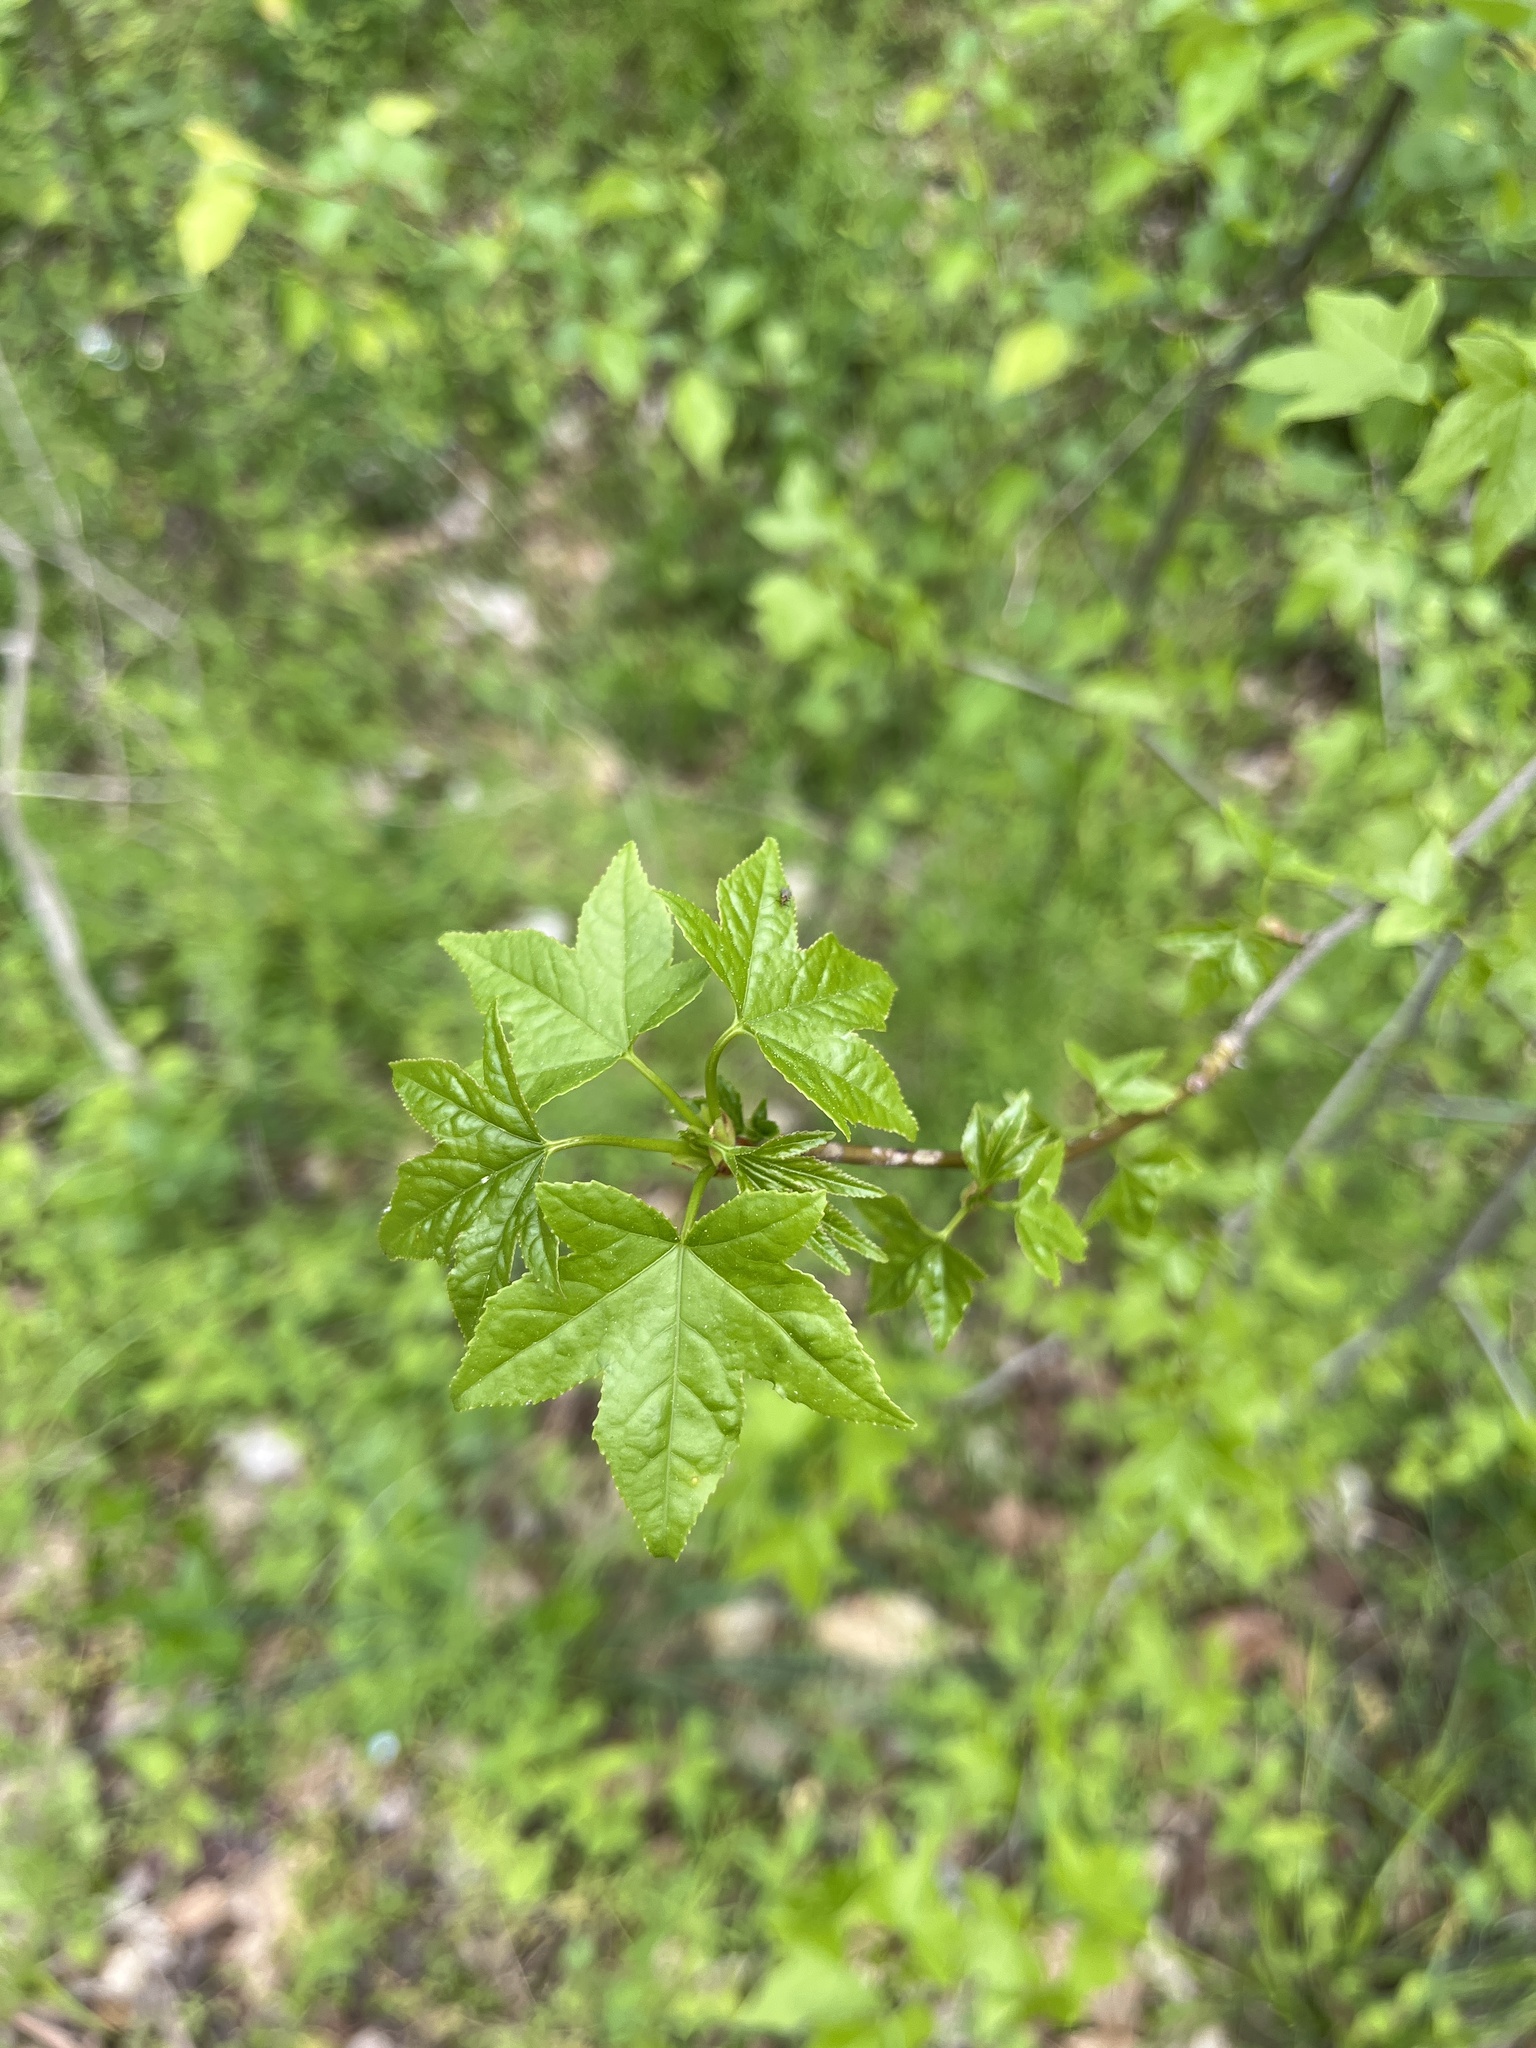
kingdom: Plantae
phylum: Tracheophyta
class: Magnoliopsida
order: Saxifragales
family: Altingiaceae
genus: Liquidambar
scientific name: Liquidambar styraciflua
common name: Sweet gum
